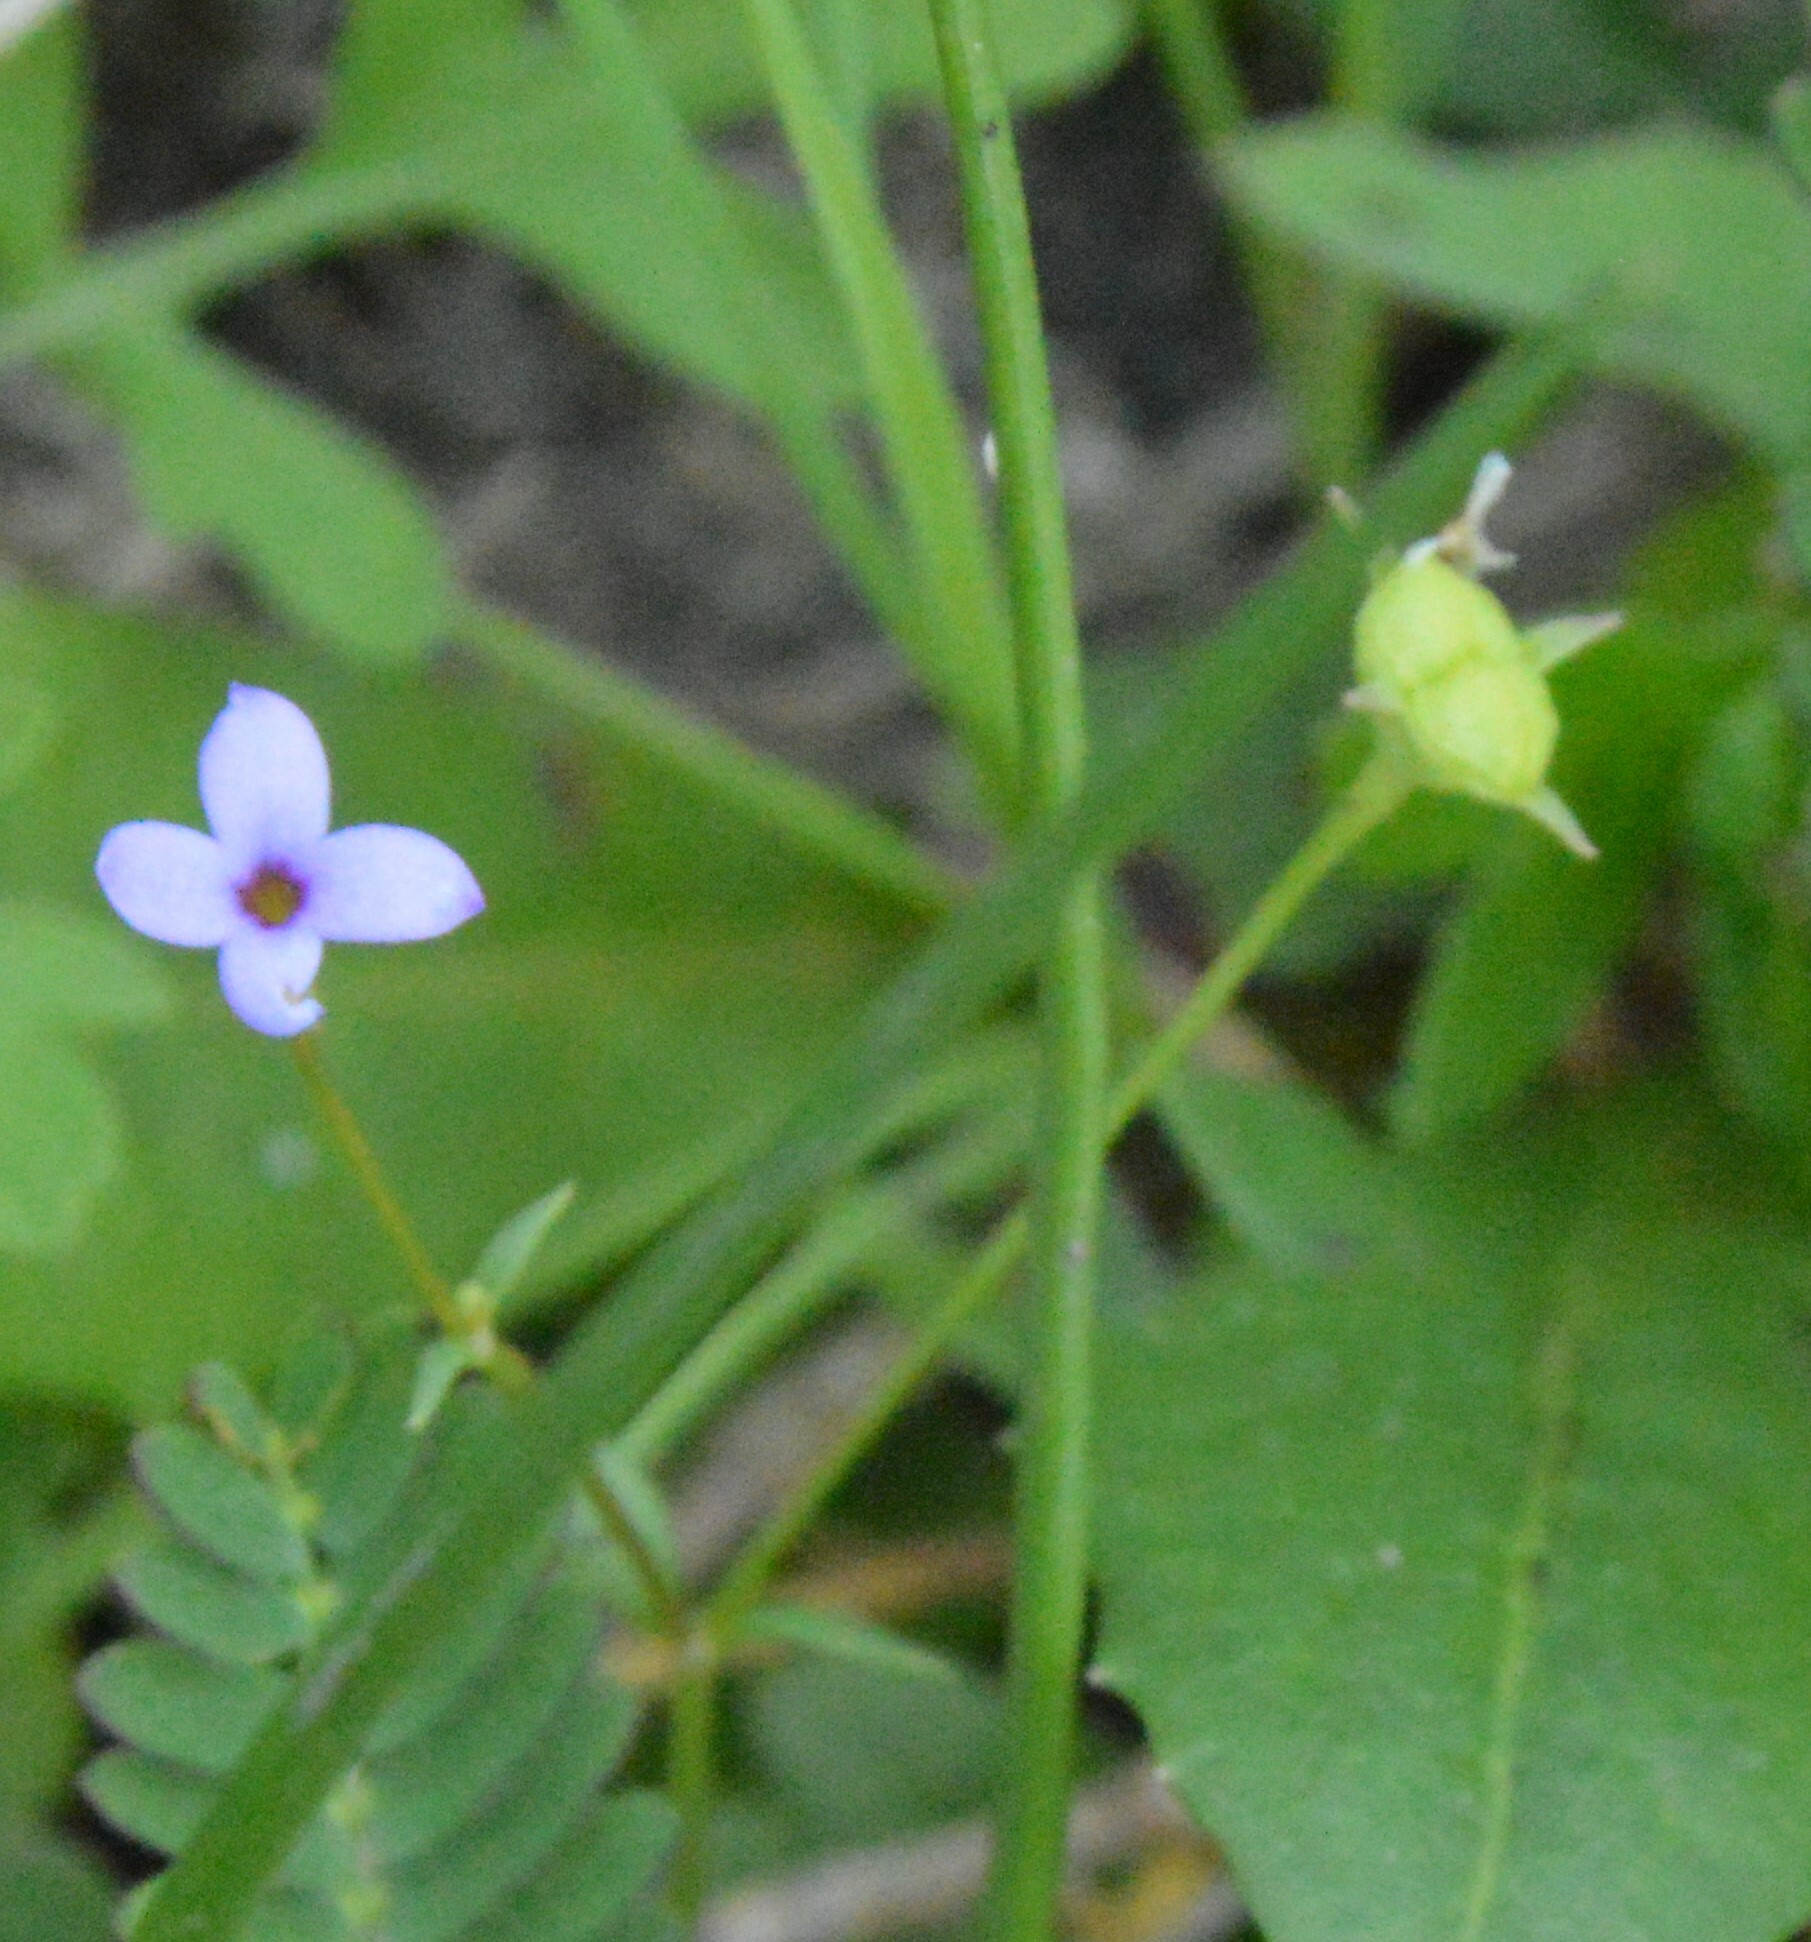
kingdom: Plantae
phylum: Tracheophyta
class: Magnoliopsida
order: Gentianales
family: Rubiaceae
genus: Houstonia
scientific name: Houstonia pusilla
